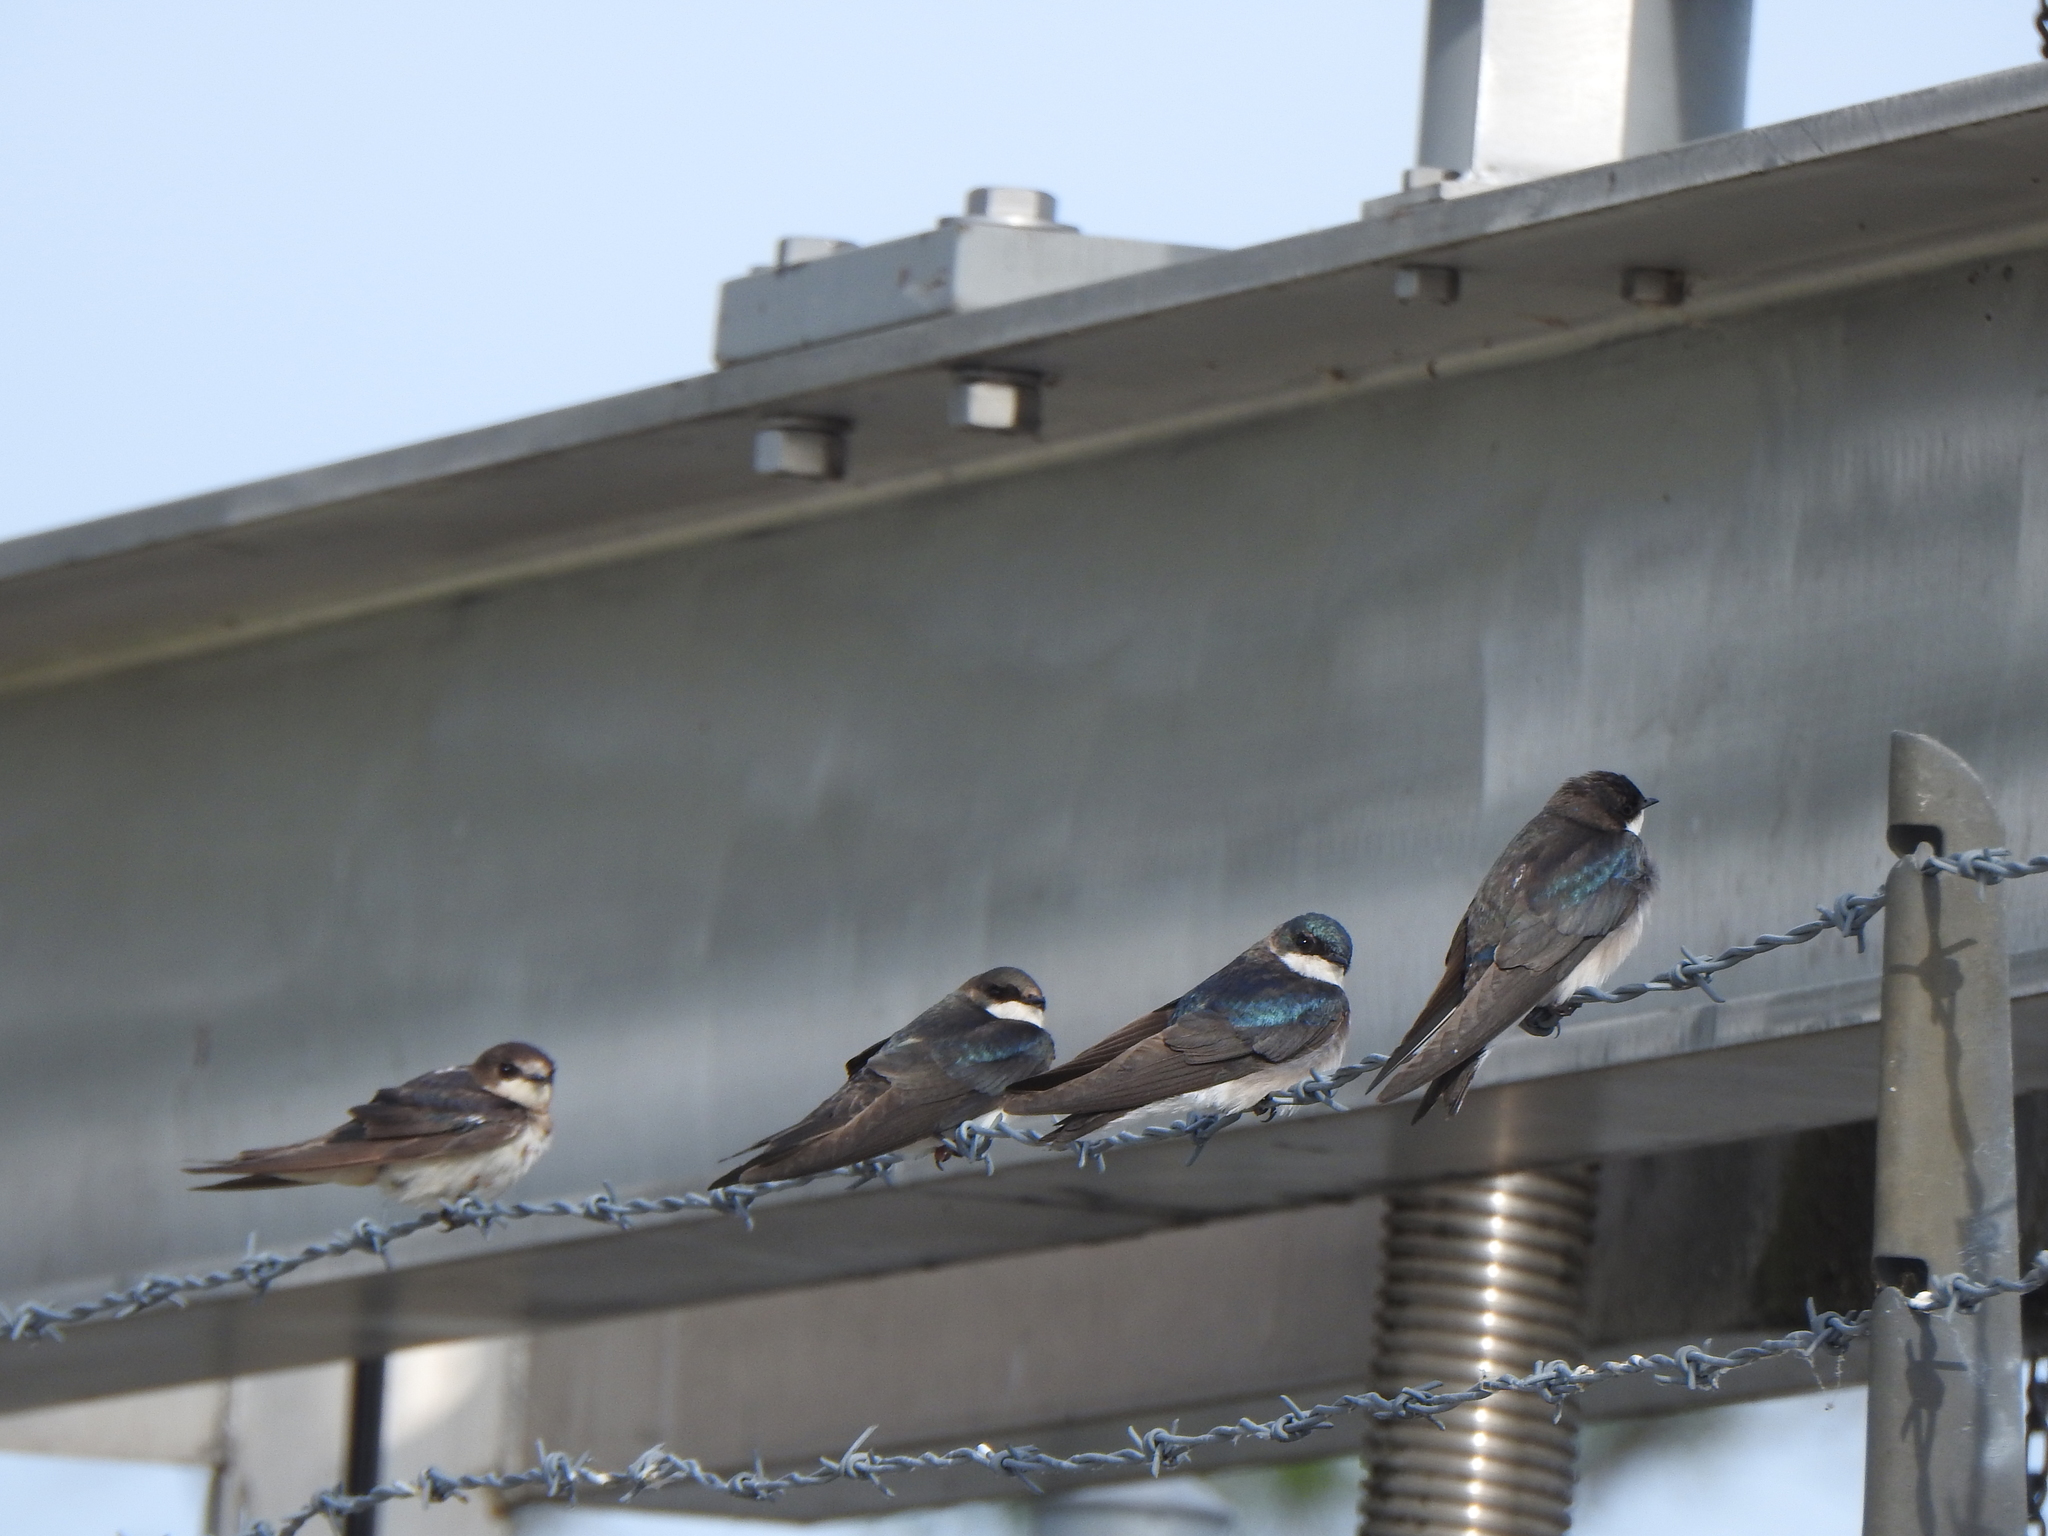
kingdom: Animalia
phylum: Chordata
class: Aves
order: Passeriformes
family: Hirundinidae
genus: Tachycineta
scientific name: Tachycineta bicolor
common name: Tree swallow
